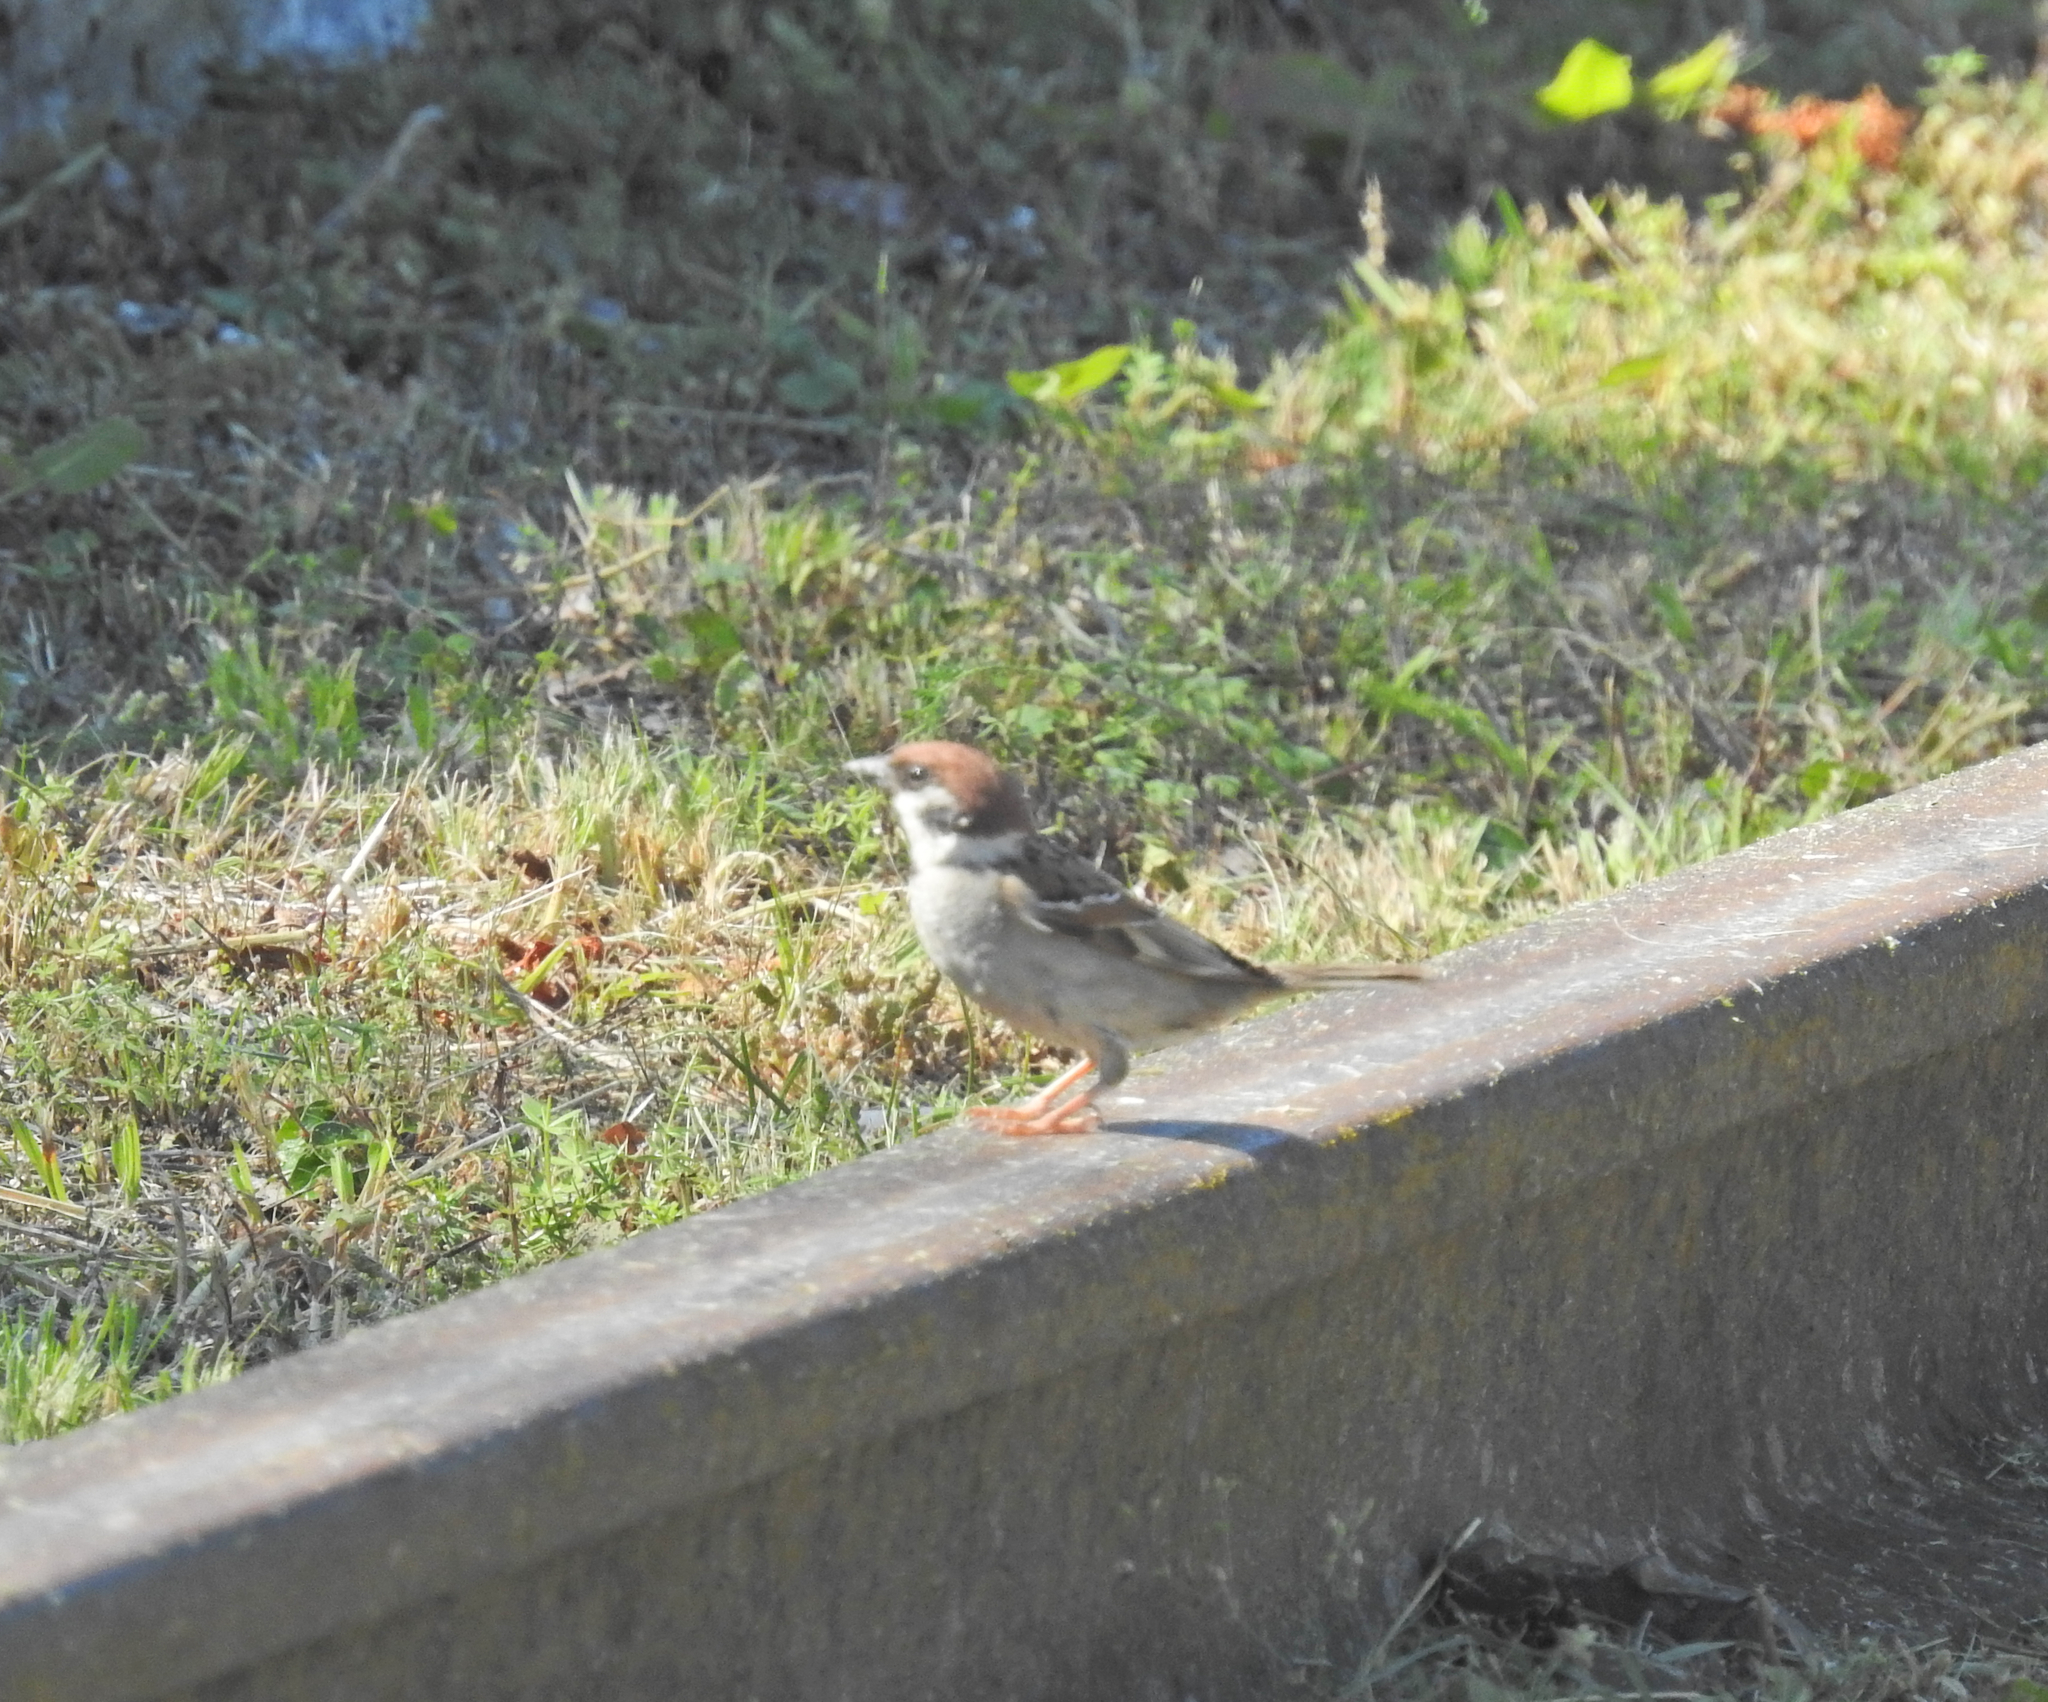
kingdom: Animalia
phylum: Chordata
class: Aves
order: Passeriformes
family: Passeridae
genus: Passer
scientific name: Passer montanus
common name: Eurasian tree sparrow
